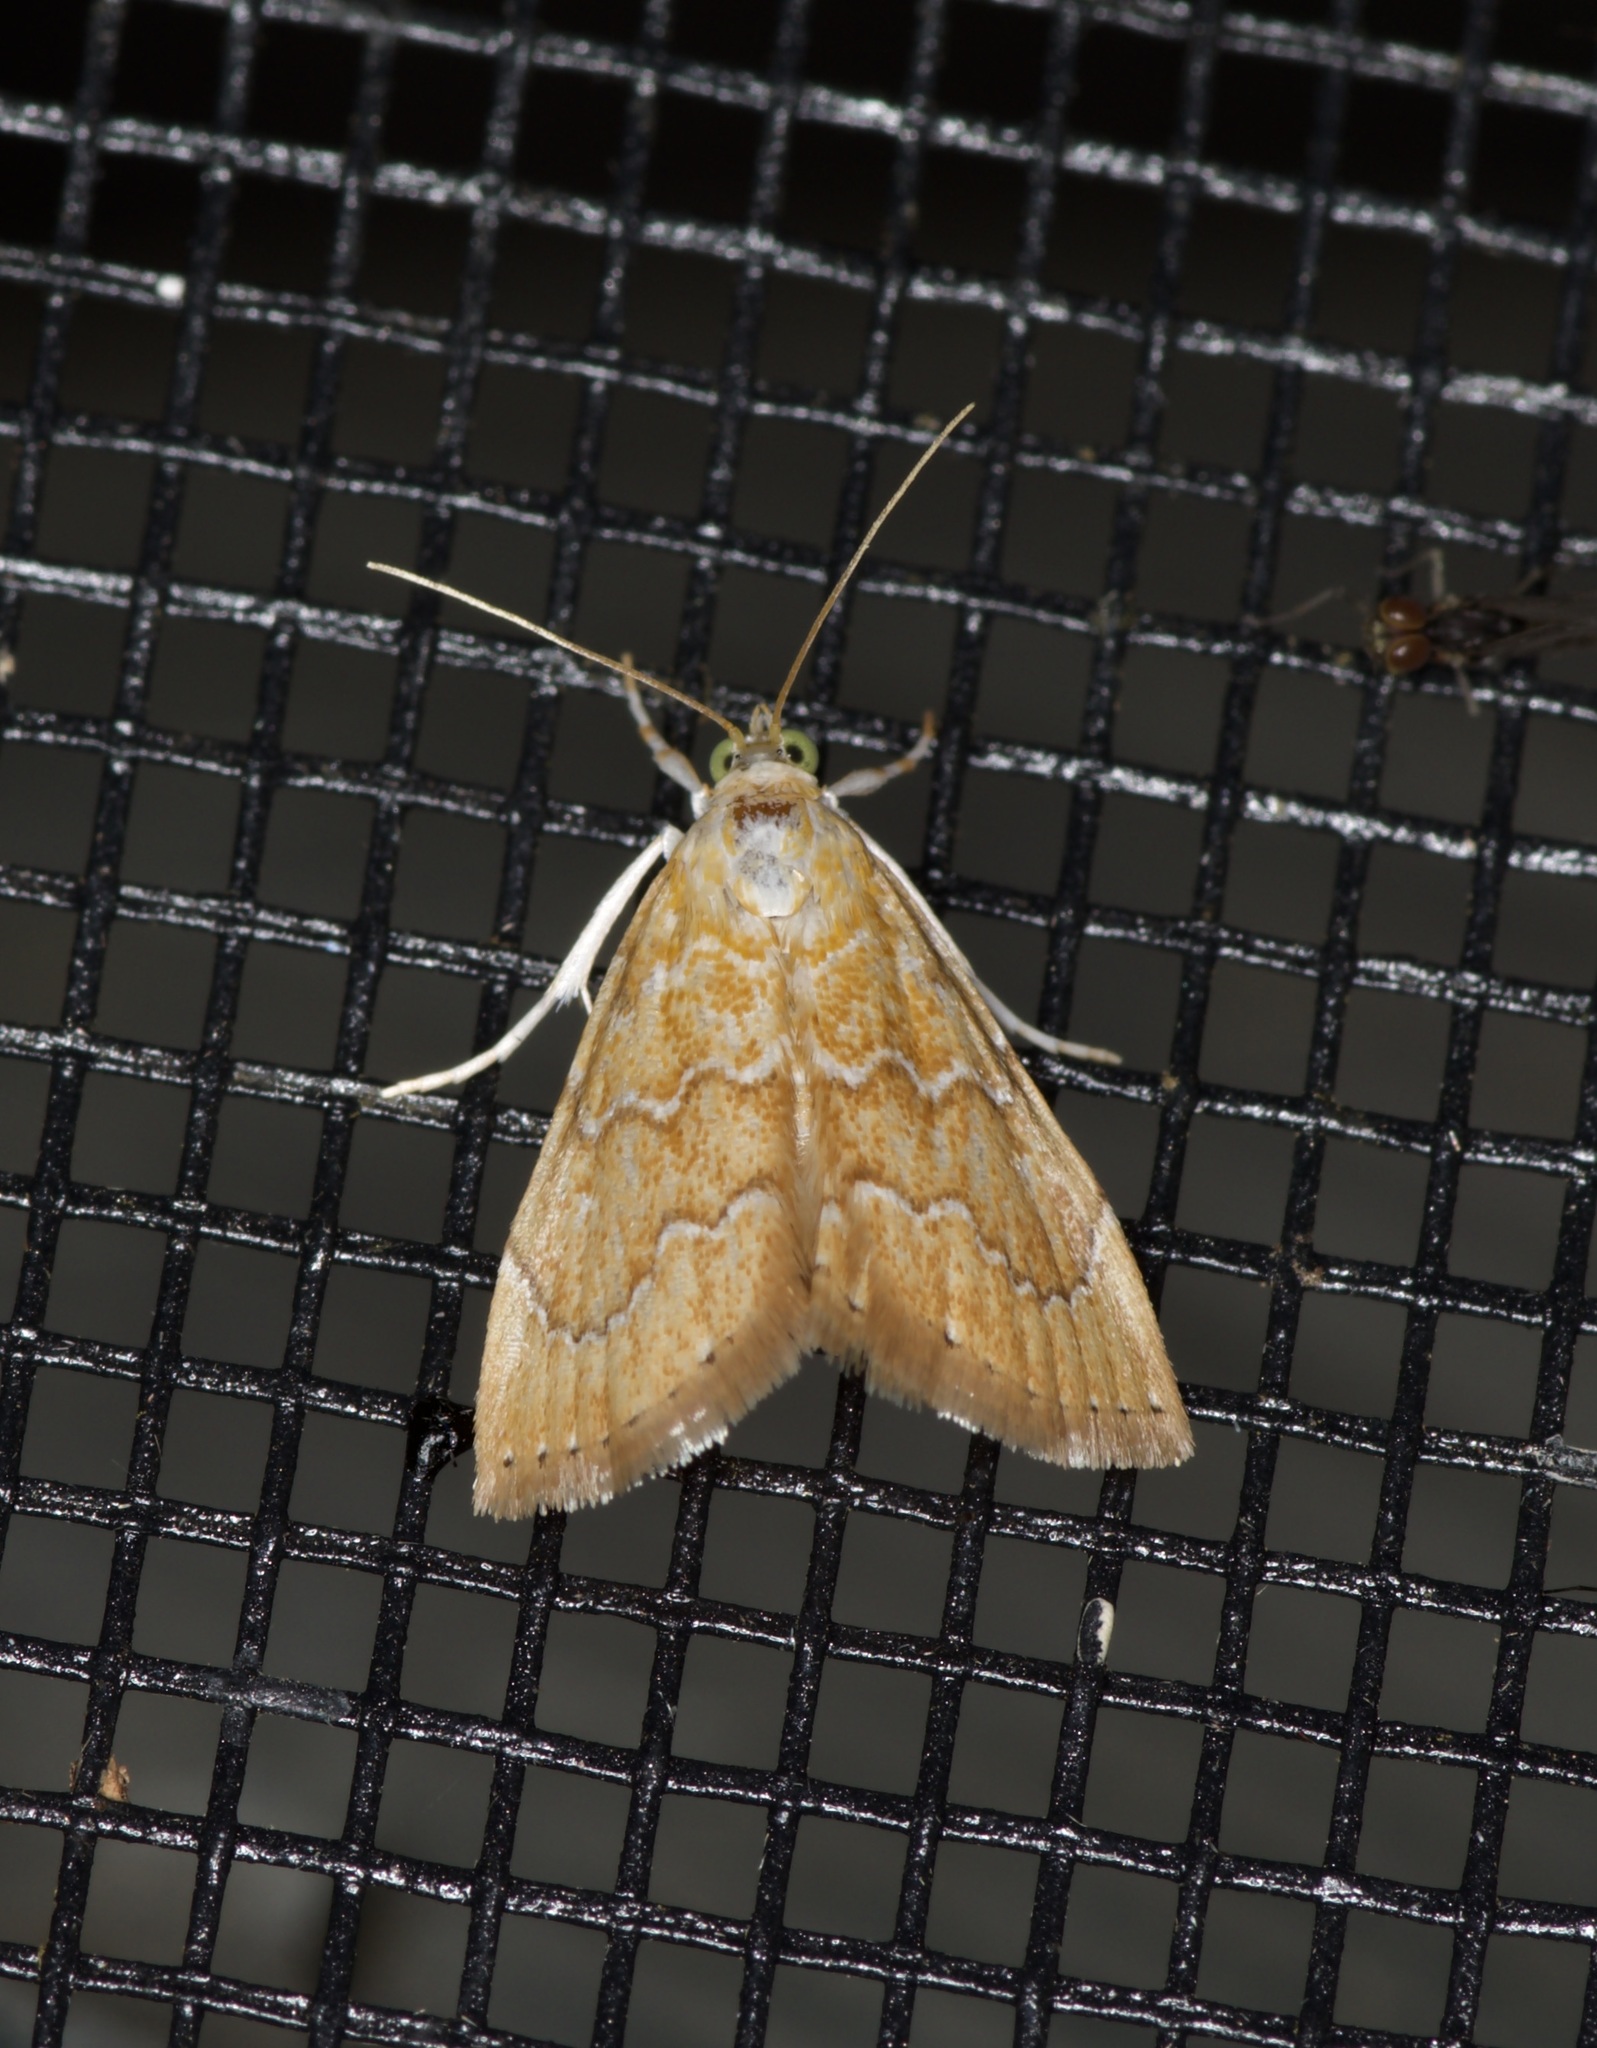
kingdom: Animalia
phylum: Arthropoda
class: Insecta
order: Lepidoptera
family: Crambidae
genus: Glaphyria
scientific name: Glaphyria sesquistrialis
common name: White-roped glaphyria
